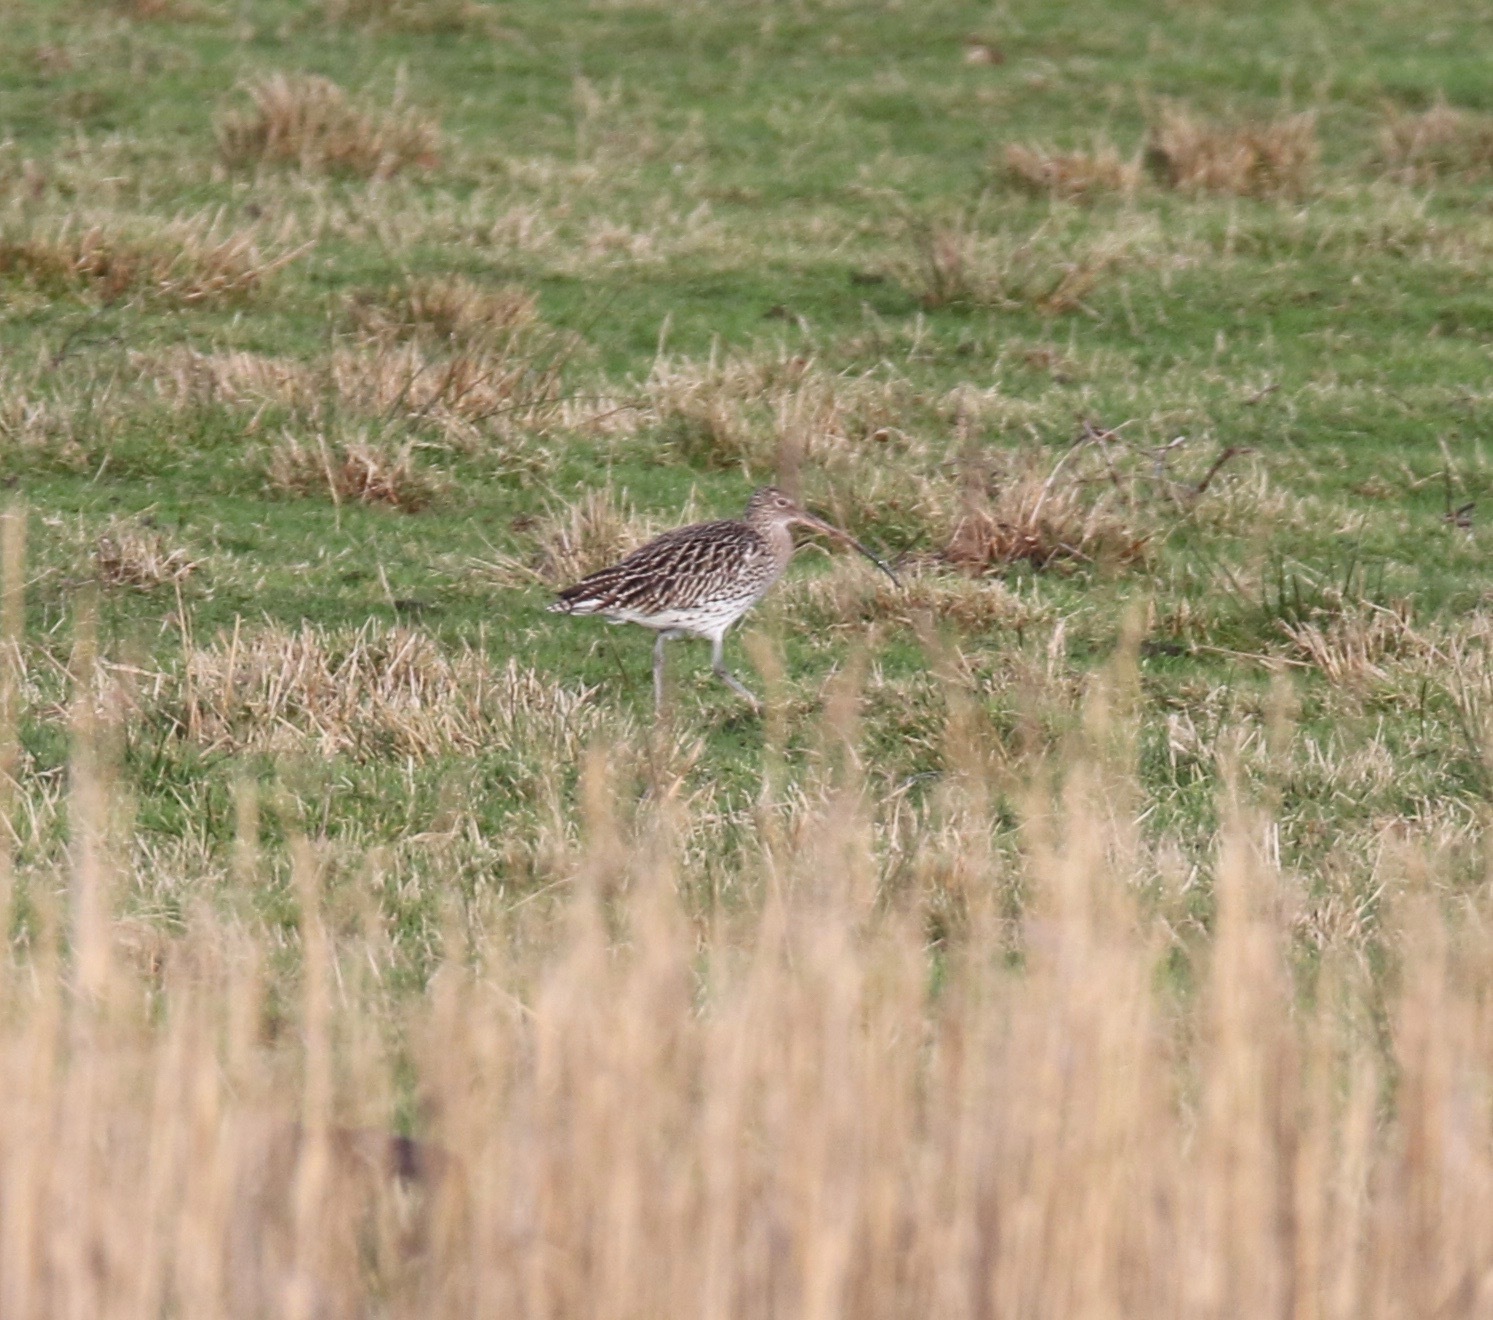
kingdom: Animalia
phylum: Chordata
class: Aves
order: Charadriiformes
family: Scolopacidae
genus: Numenius
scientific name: Numenius arquata
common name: Eurasian curlew
